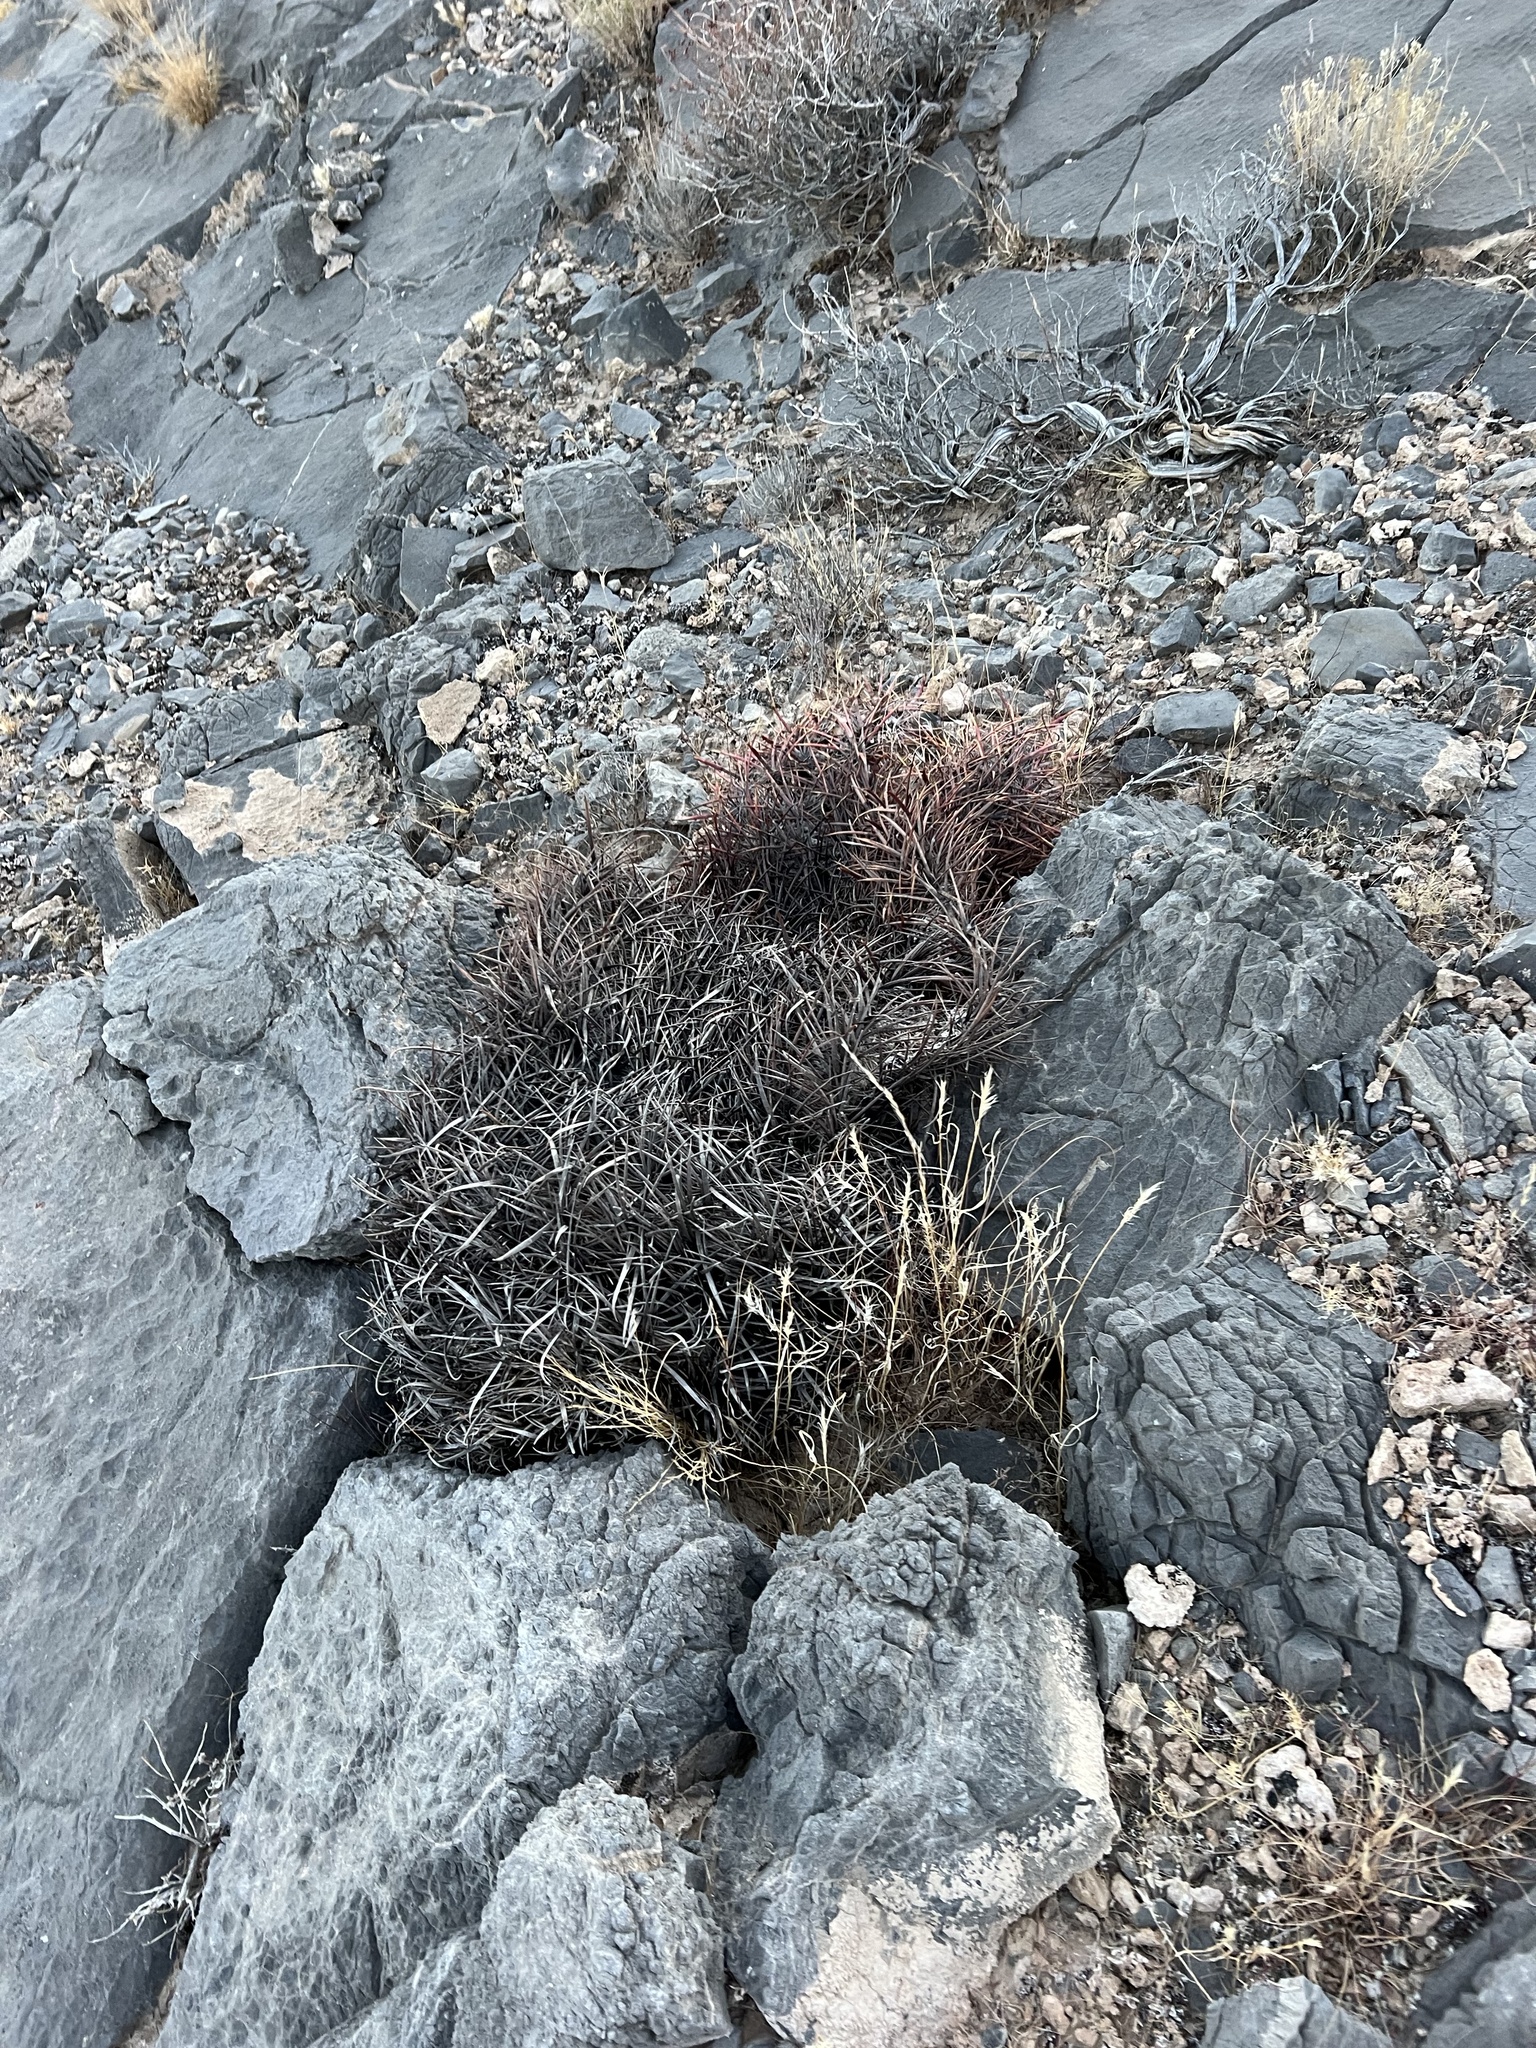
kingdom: Plantae
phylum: Tracheophyta
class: Magnoliopsida
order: Caryophyllales
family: Cactaceae
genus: Ferocactus
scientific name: Ferocactus cylindraceus
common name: California barrel cactus
